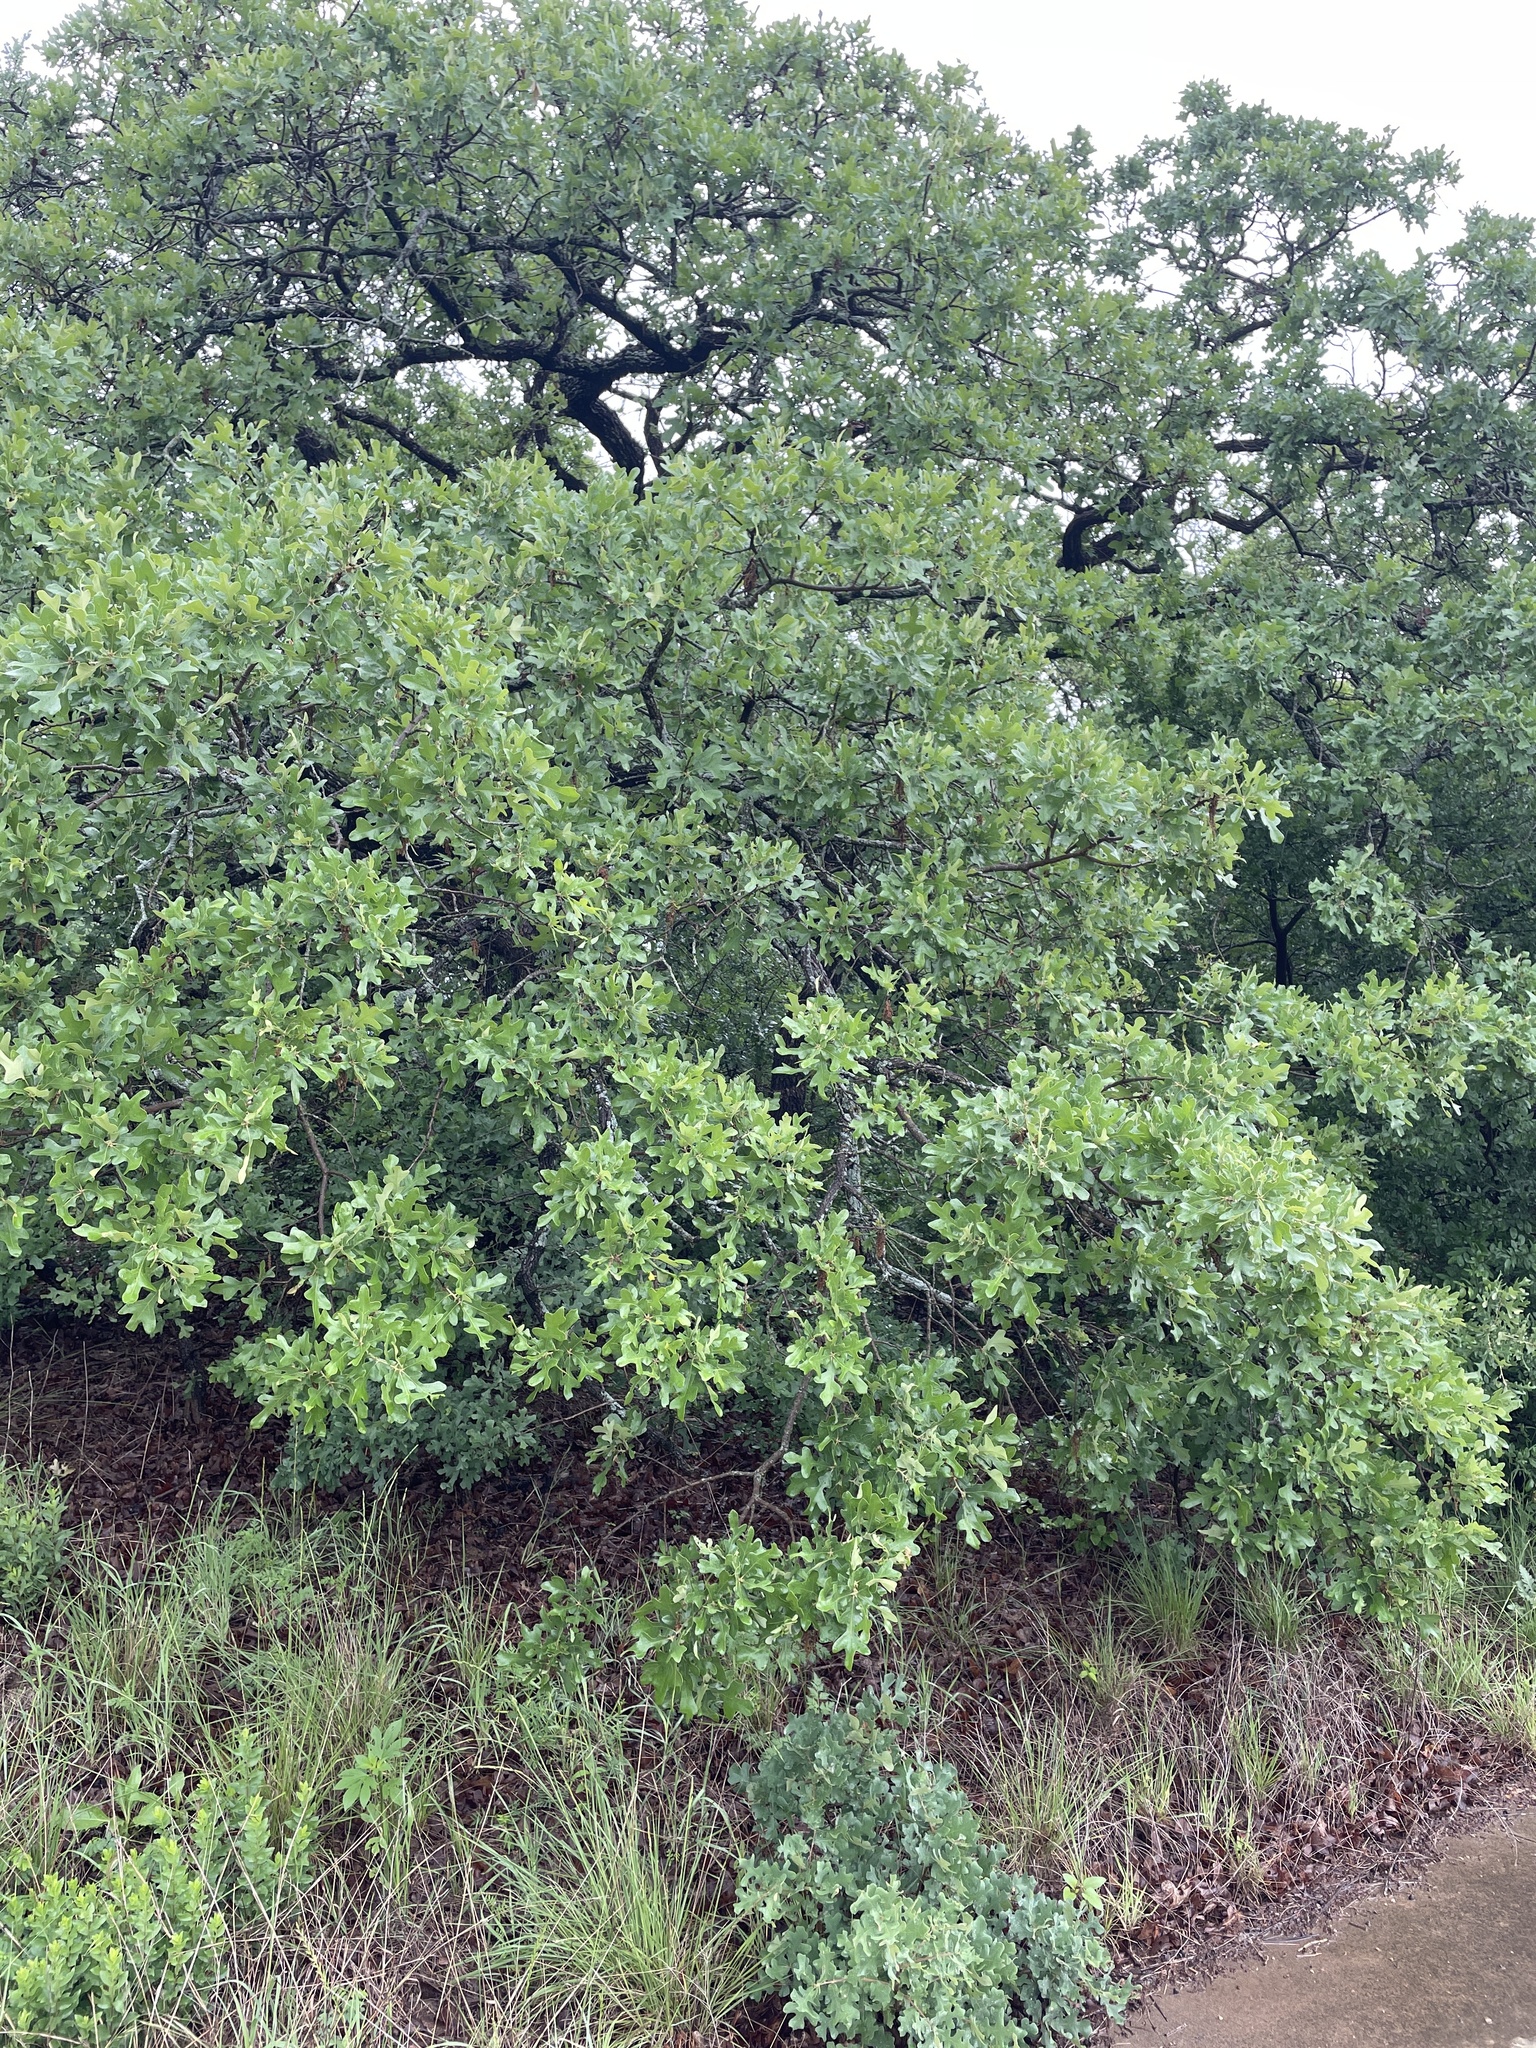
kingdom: Plantae
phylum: Tracheophyta
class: Magnoliopsida
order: Fagales
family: Fagaceae
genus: Quercus
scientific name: Quercus stellata
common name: Post oak
